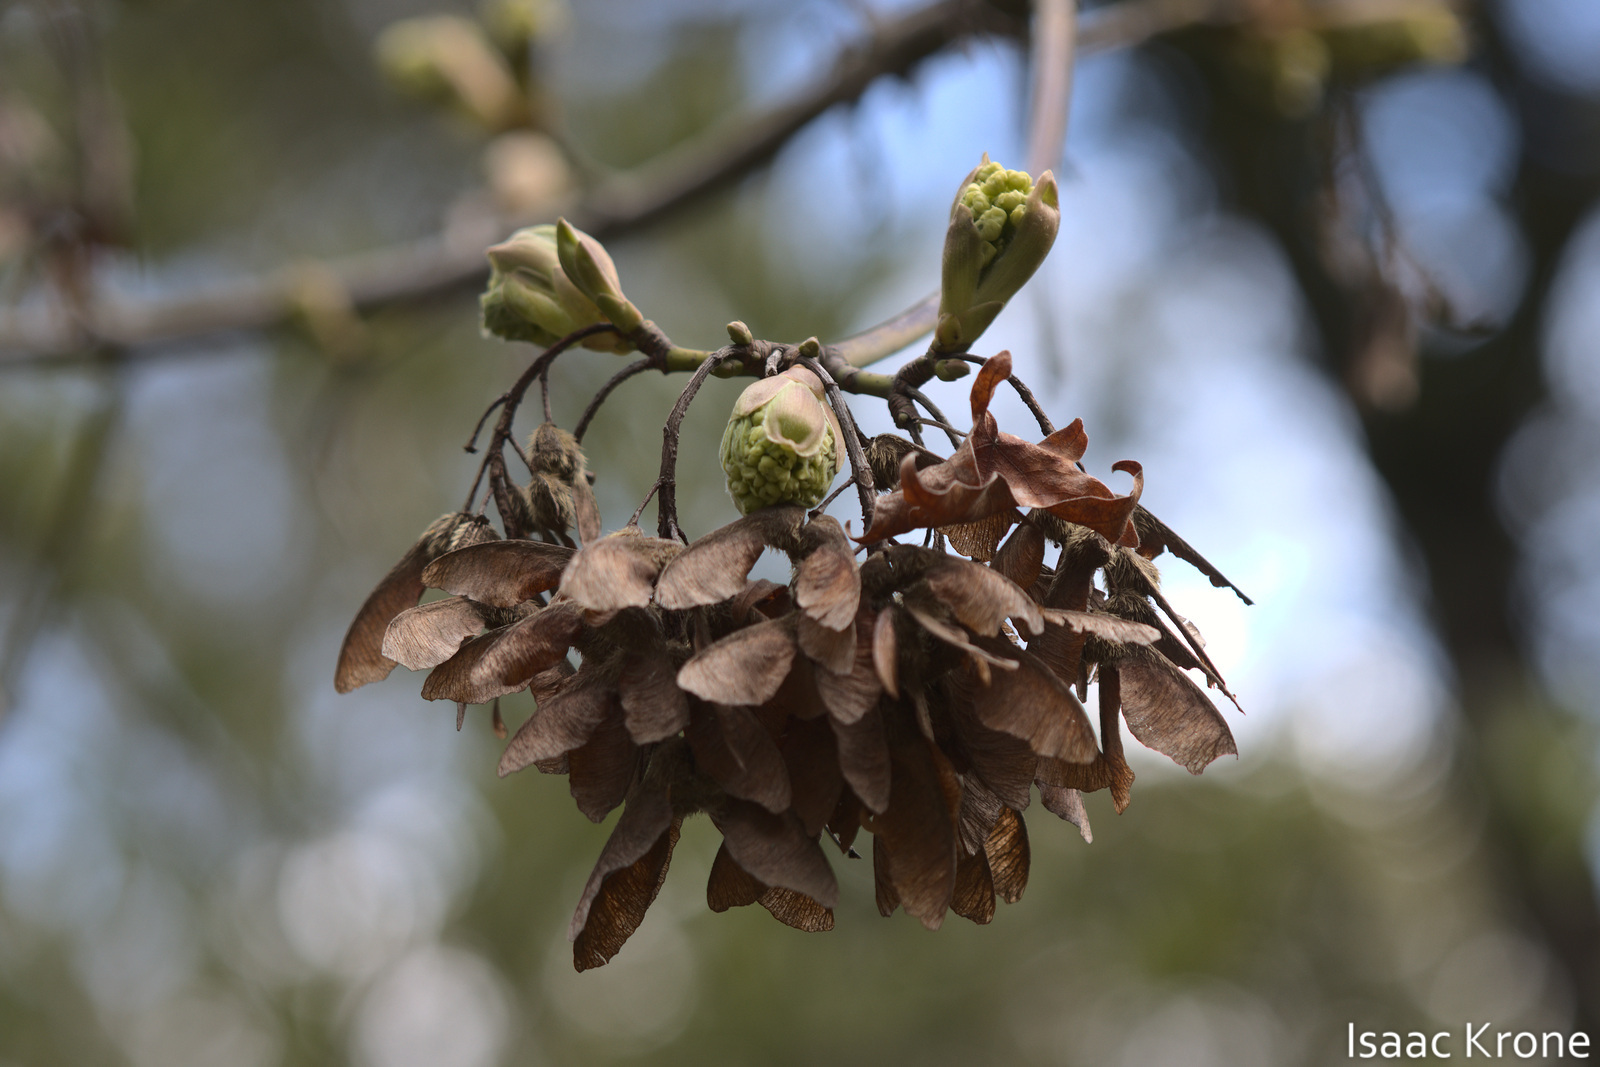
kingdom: Plantae
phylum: Tracheophyta
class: Magnoliopsida
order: Sapindales
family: Sapindaceae
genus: Acer
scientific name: Acer macrophyllum
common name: Oregon maple
